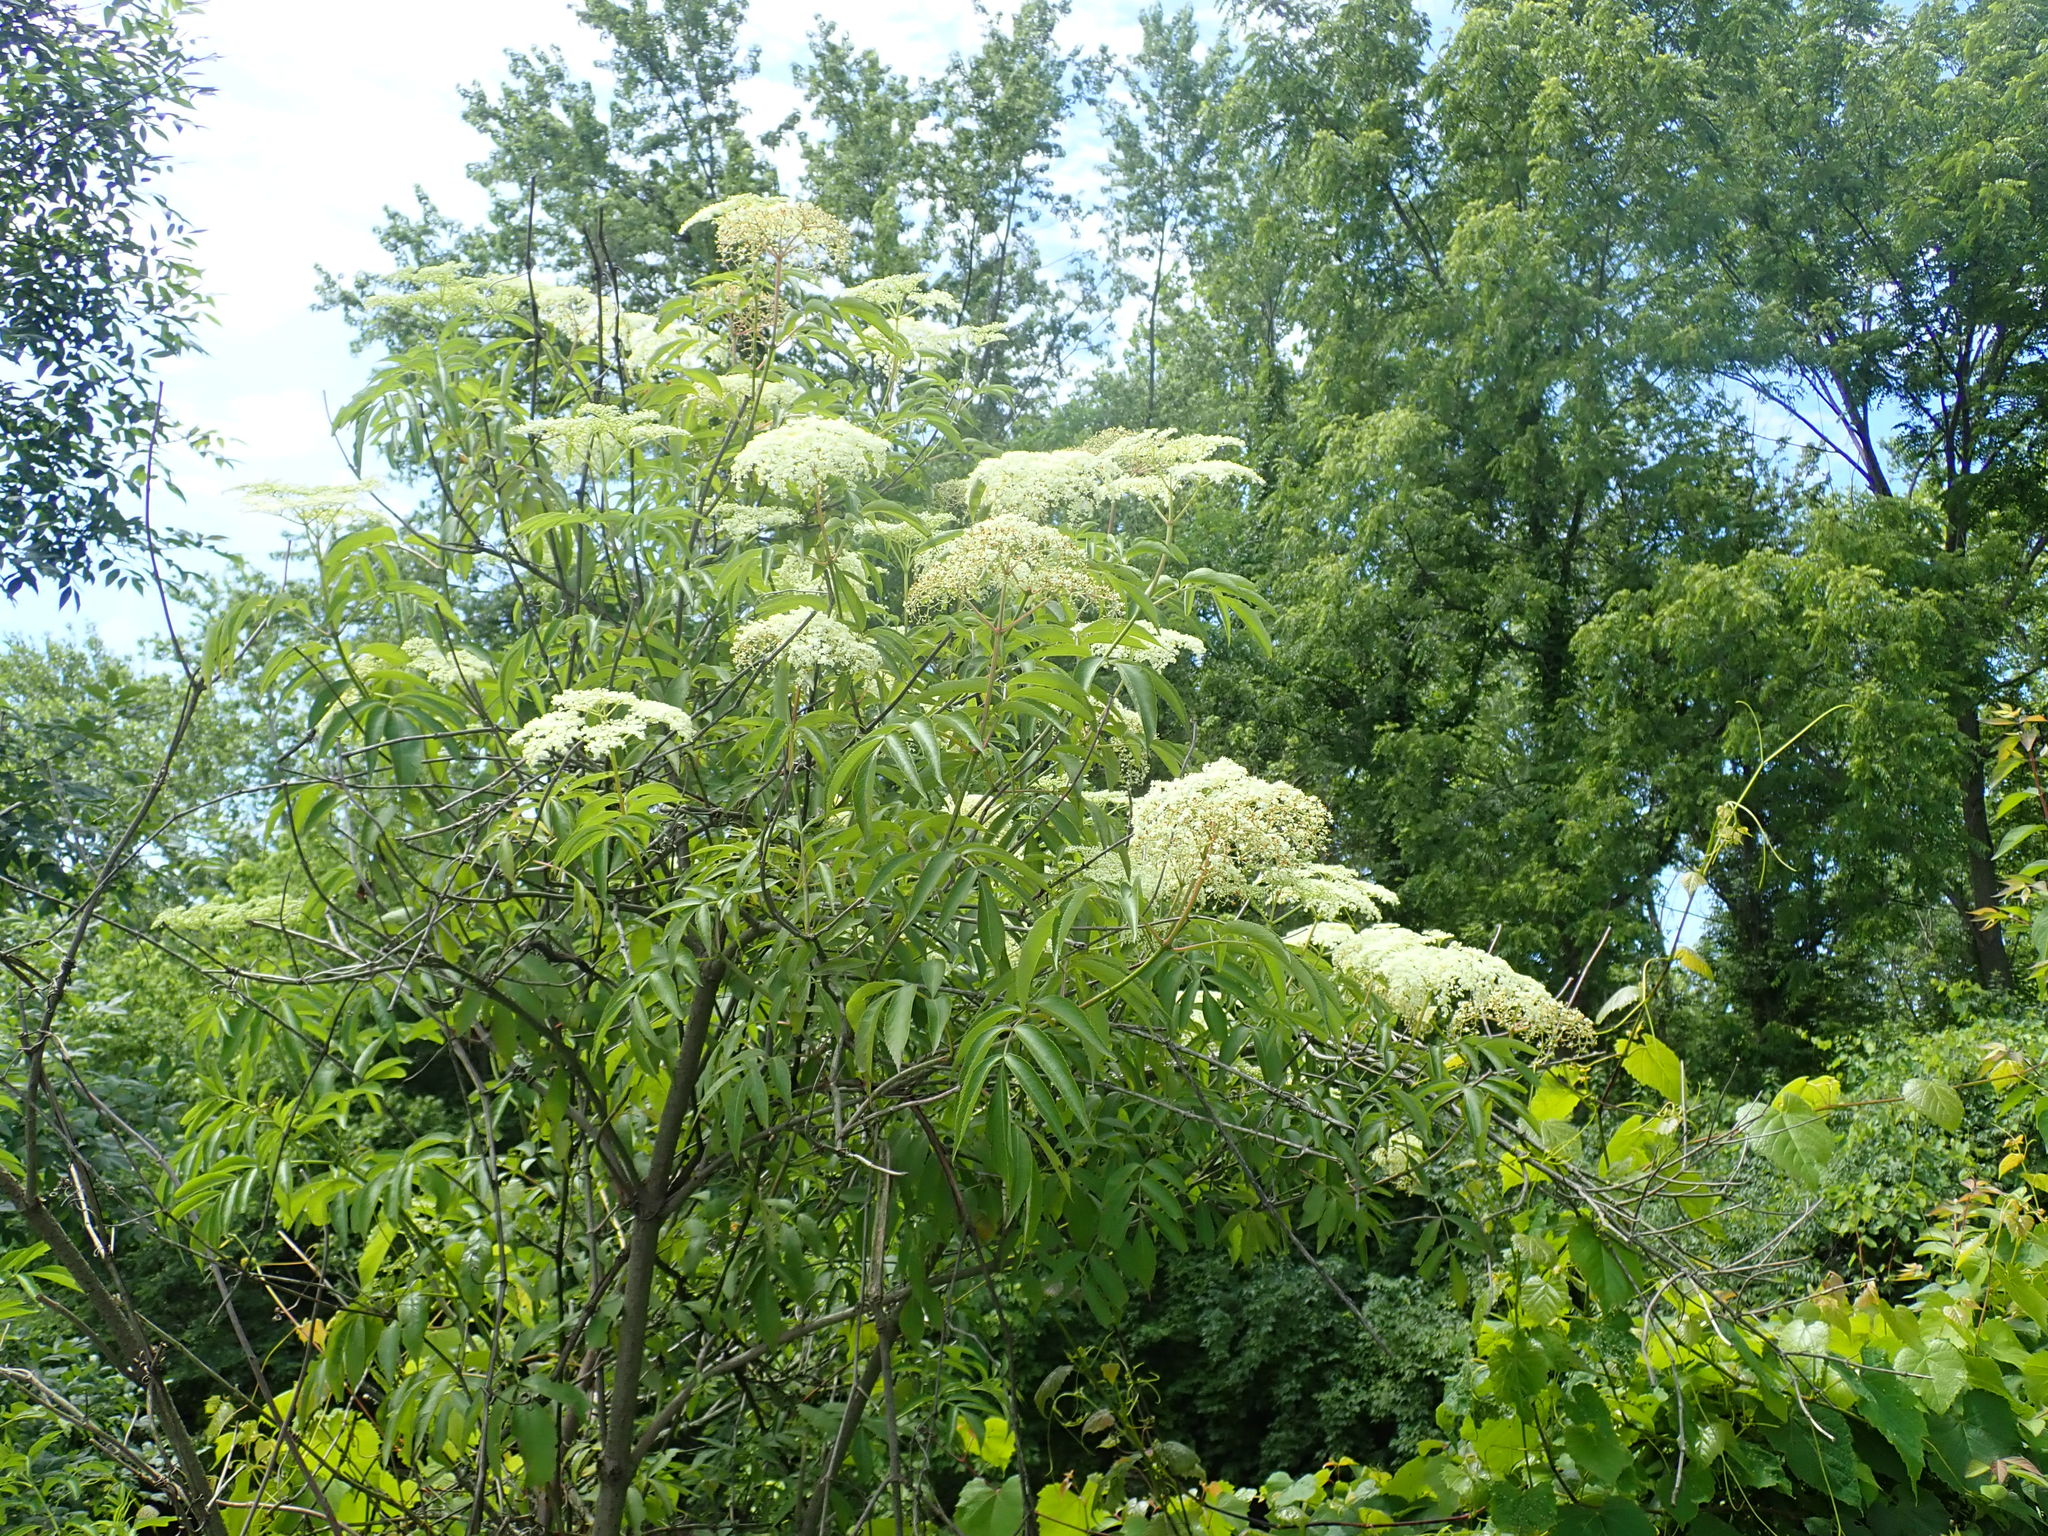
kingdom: Plantae
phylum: Tracheophyta
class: Magnoliopsida
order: Dipsacales
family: Viburnaceae
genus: Sambucus
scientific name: Sambucus canadensis
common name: American elder
